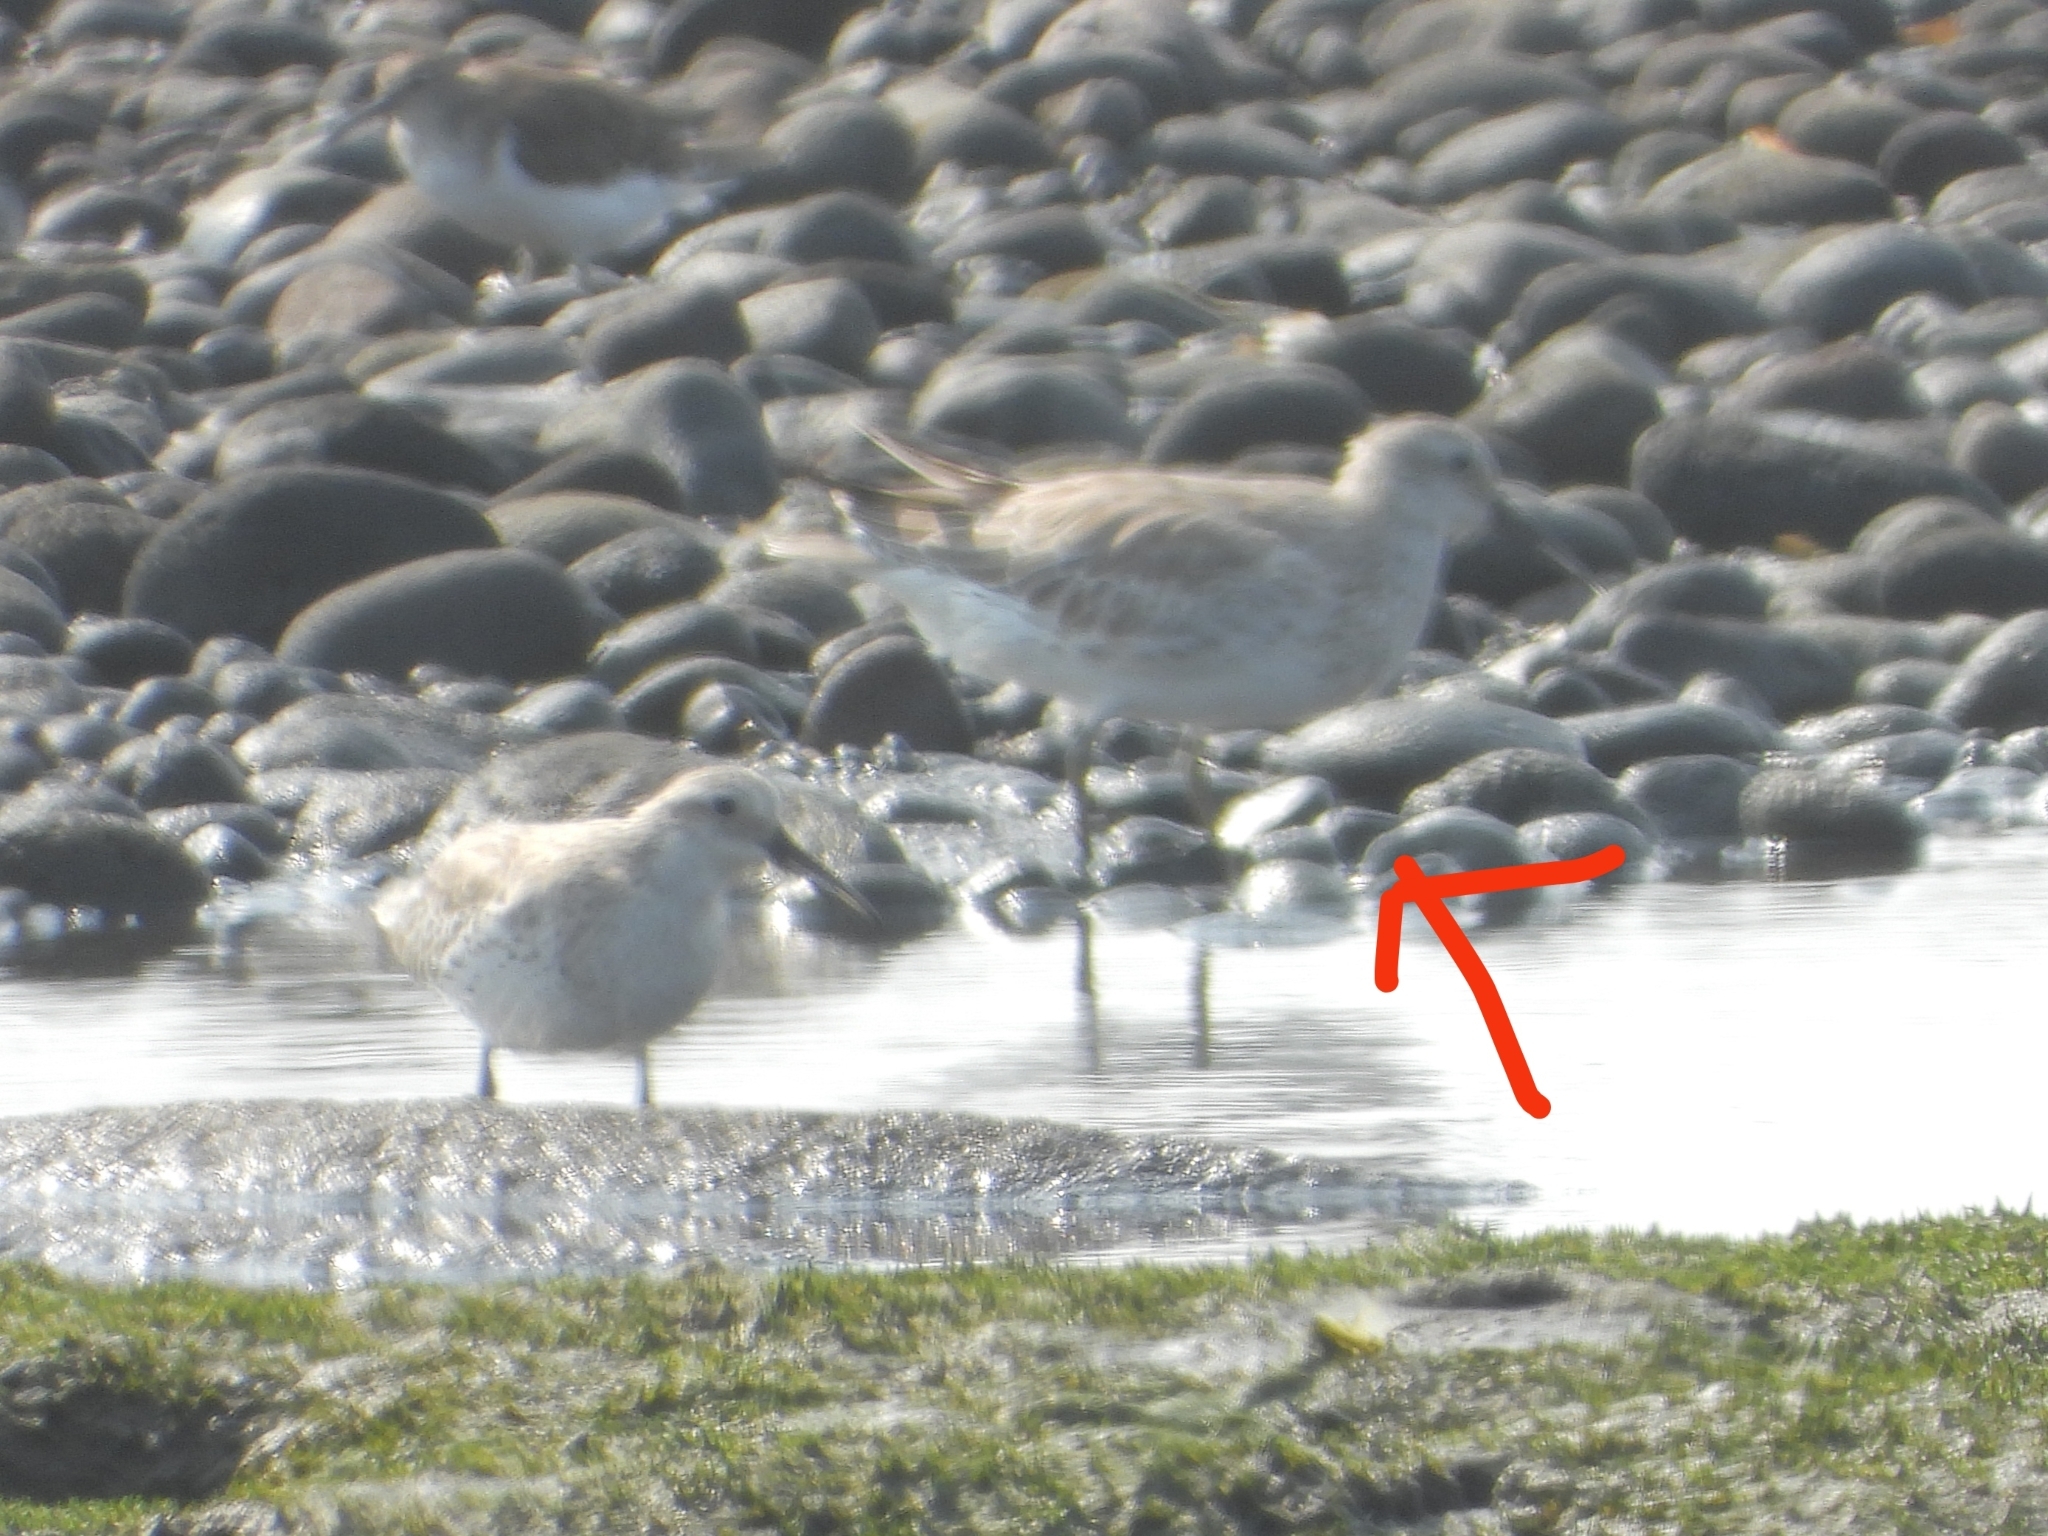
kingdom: Animalia
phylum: Chordata
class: Aves
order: Charadriiformes
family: Scolopacidae
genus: Calidris
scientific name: Calidris tenuirostris
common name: Great knot
